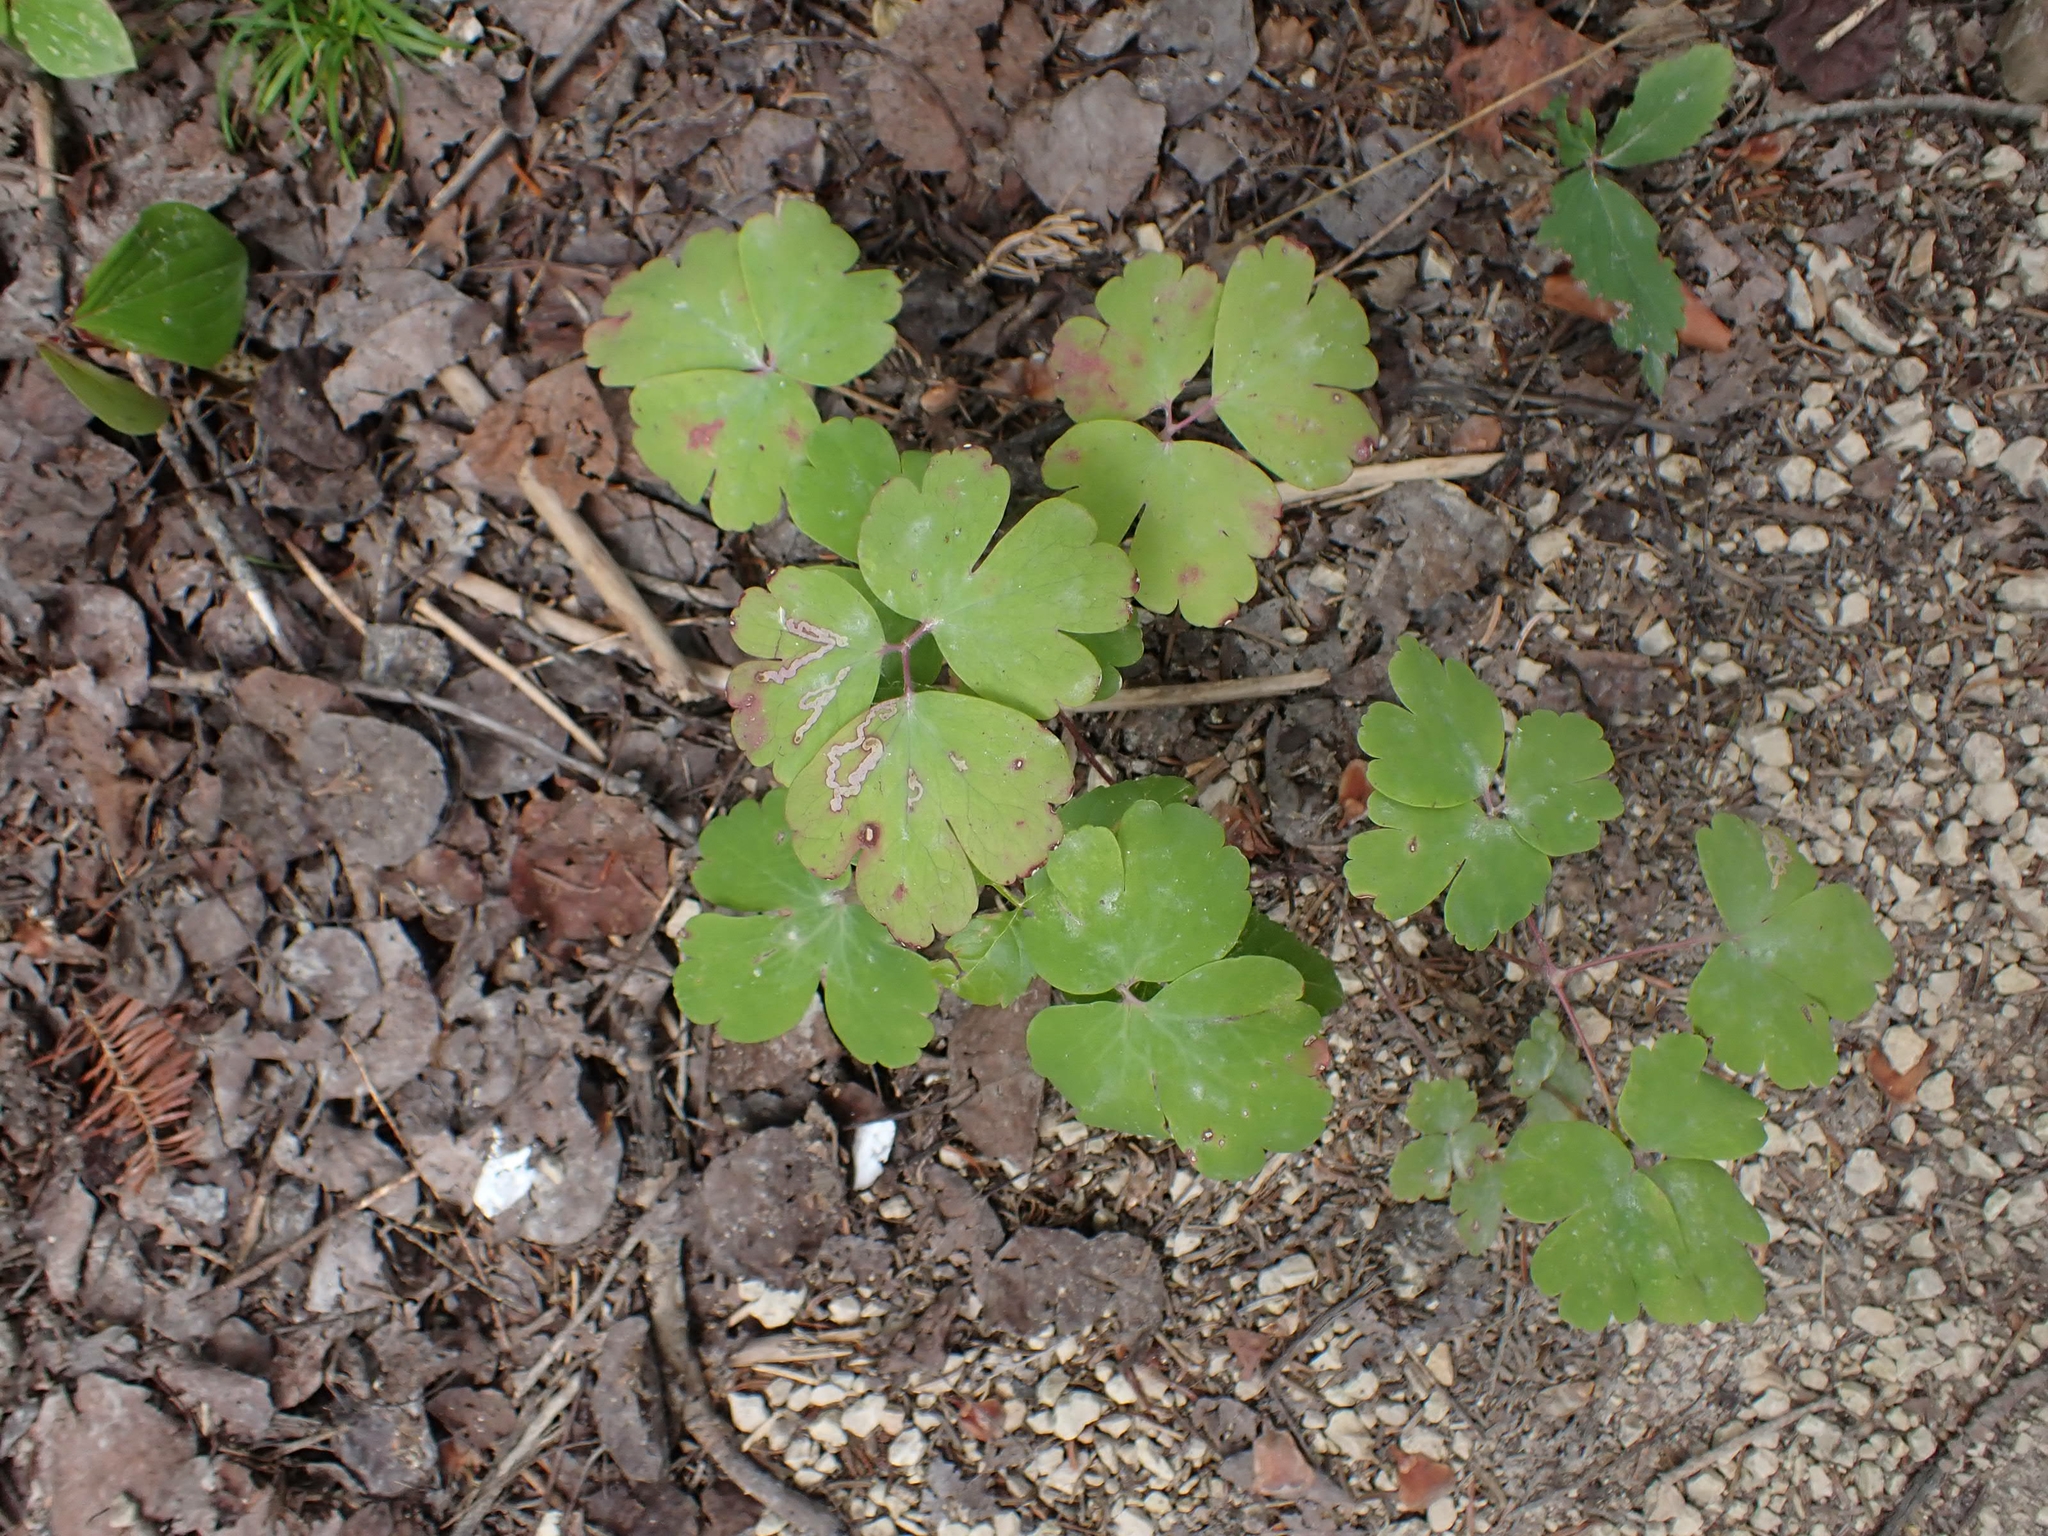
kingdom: Plantae
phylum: Tracheophyta
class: Magnoliopsida
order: Ranunculales
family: Ranunculaceae
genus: Aquilegia
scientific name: Aquilegia canadensis
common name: American columbine
